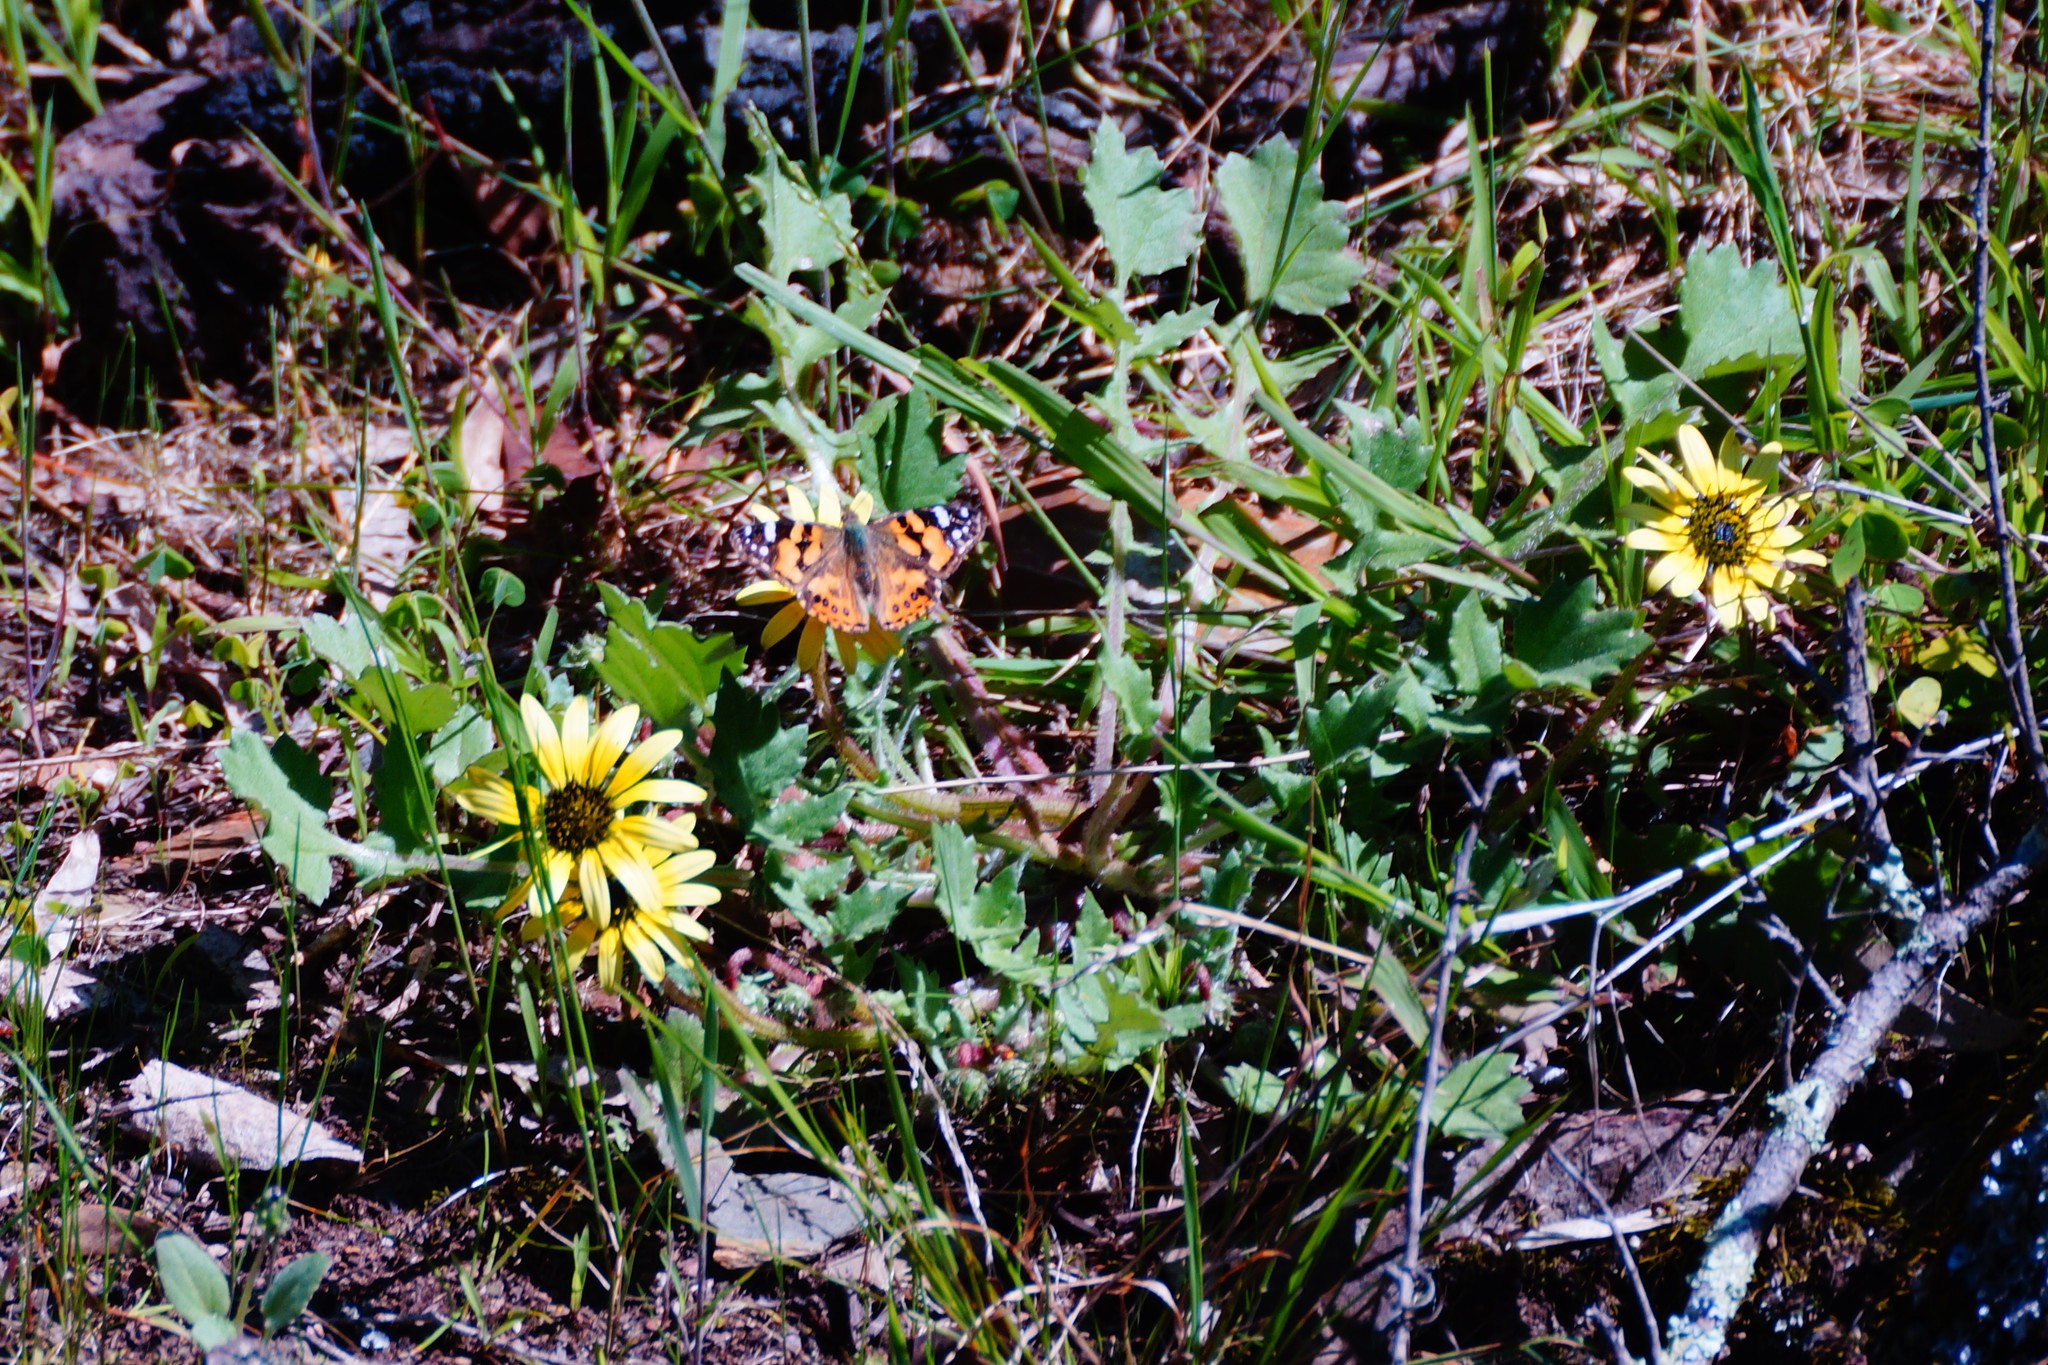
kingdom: Plantae
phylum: Tracheophyta
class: Magnoliopsida
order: Asterales
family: Asteraceae
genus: Arctotheca
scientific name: Arctotheca calendula
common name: Capeweed
